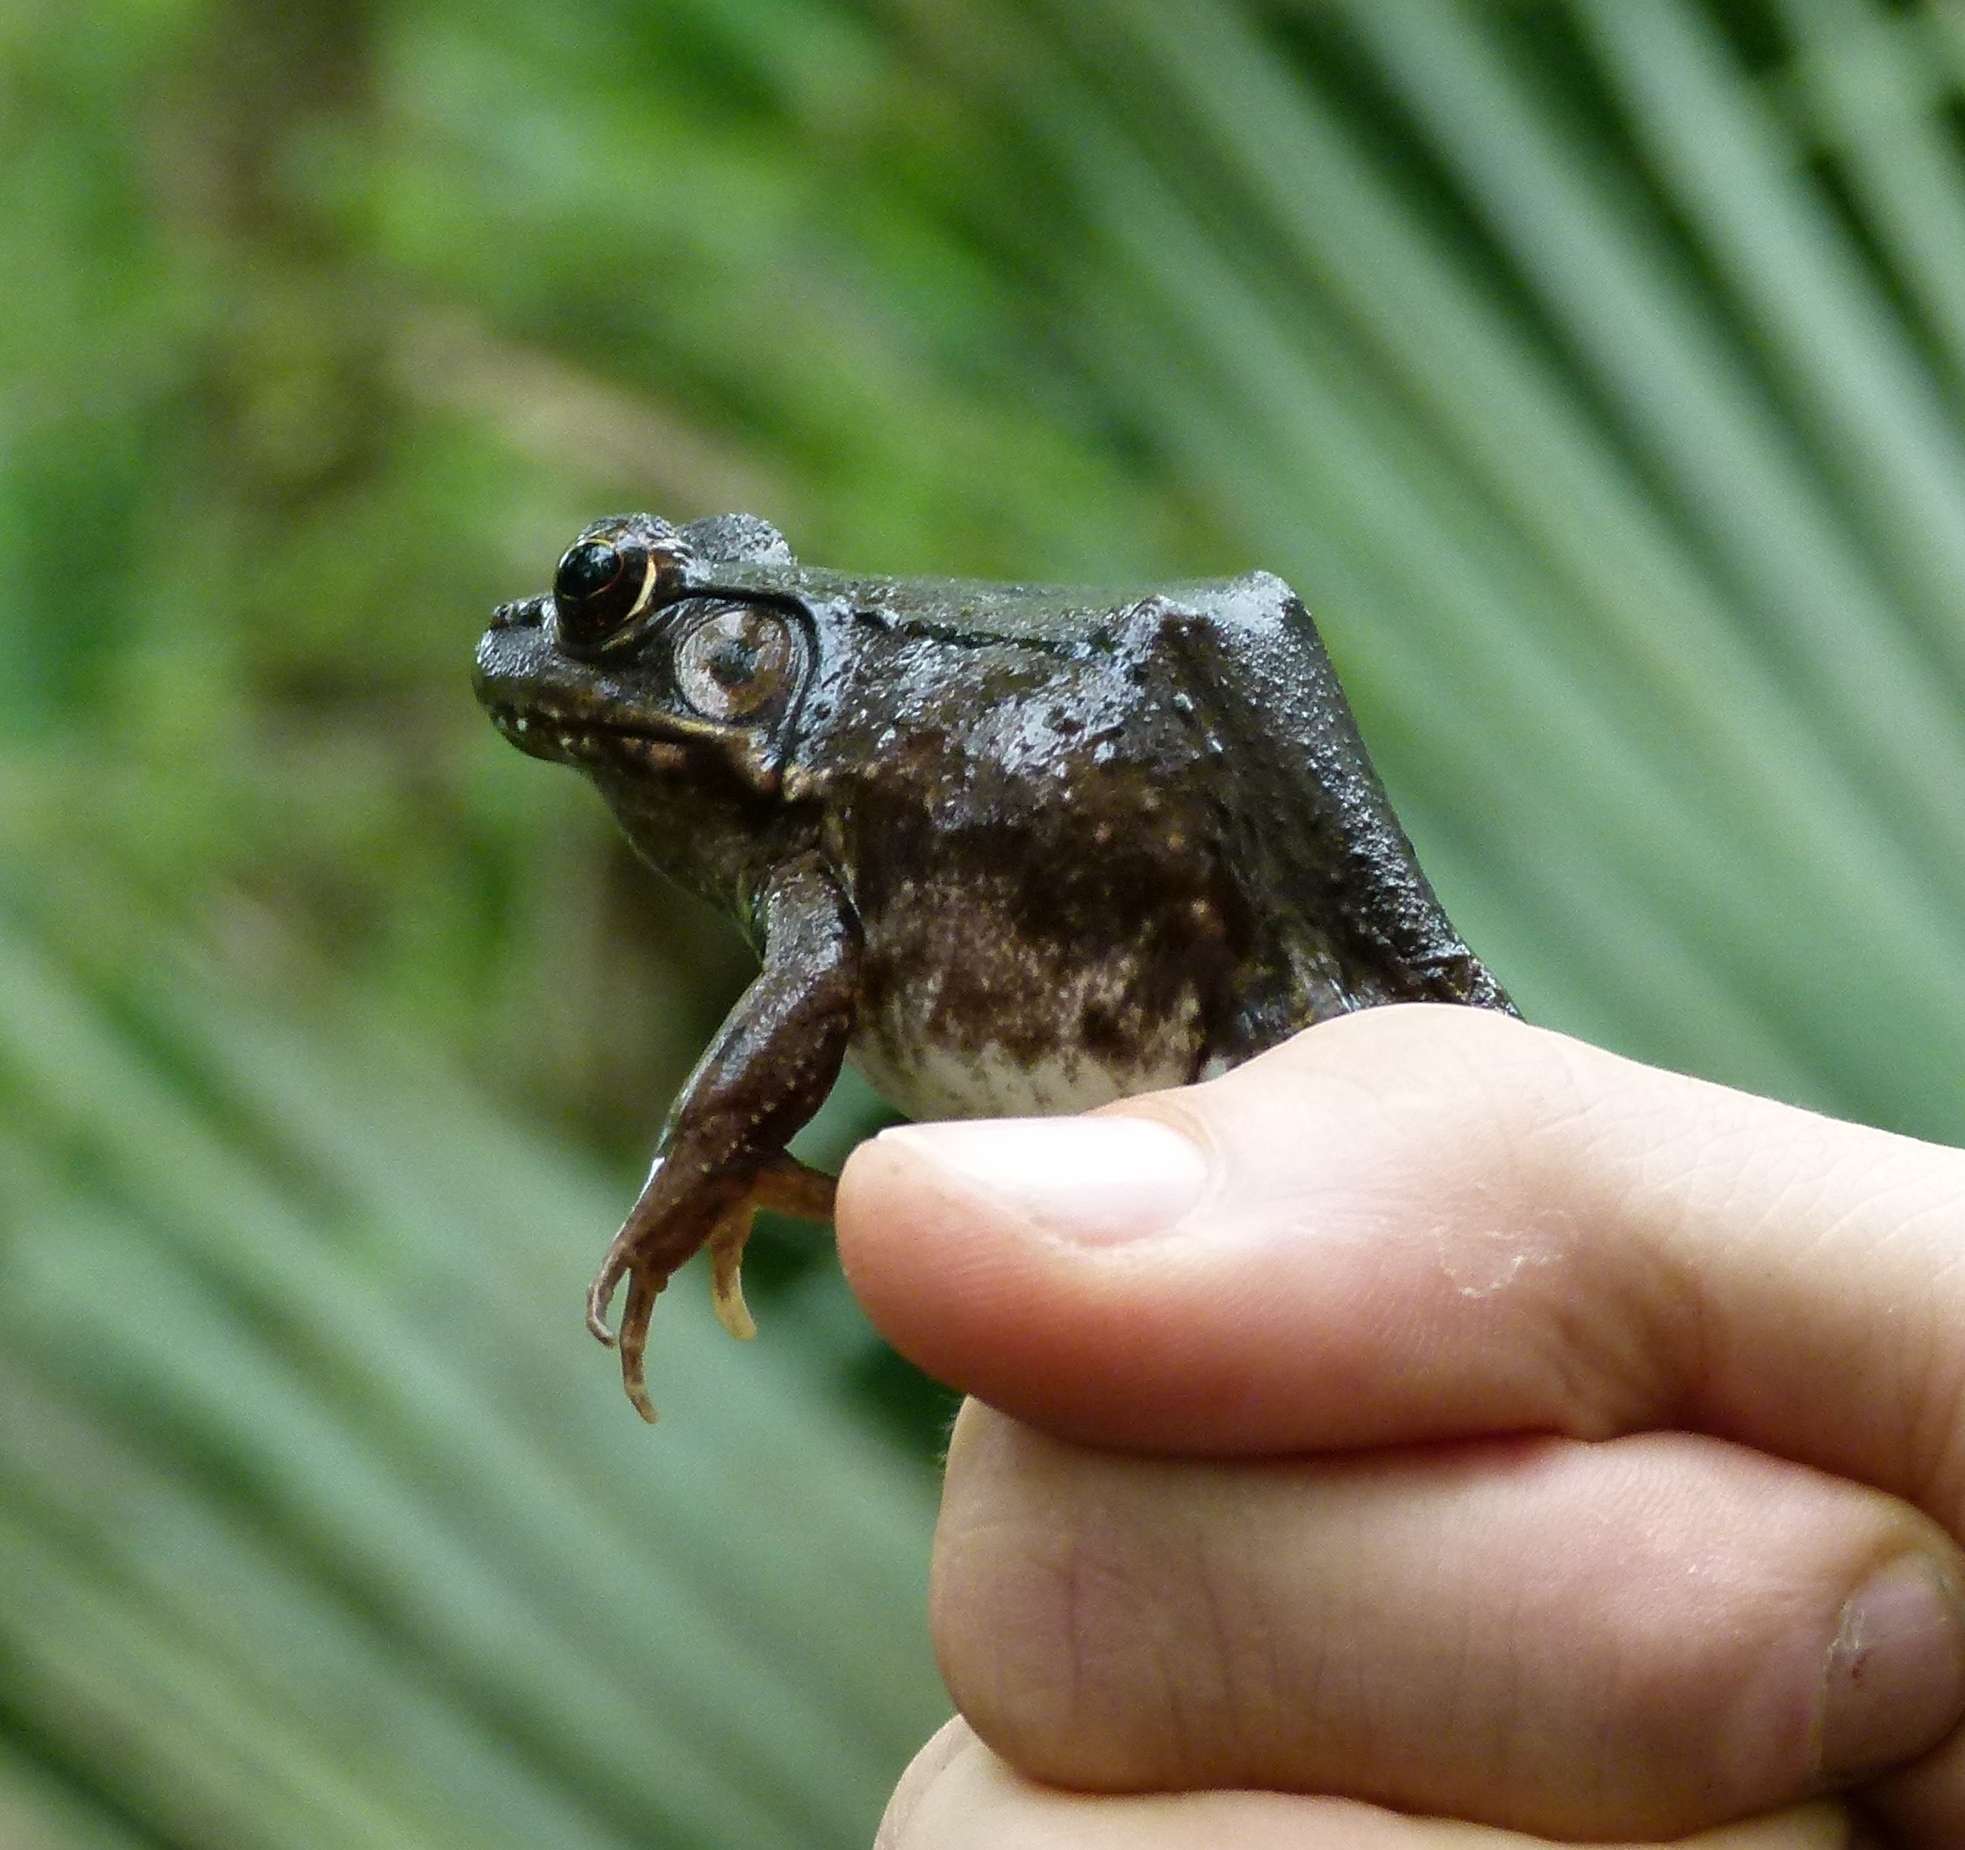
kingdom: Animalia
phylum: Chordata
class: Amphibia
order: Anura
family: Ranidae
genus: Lithobates
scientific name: Lithobates clamitans
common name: Green frog
